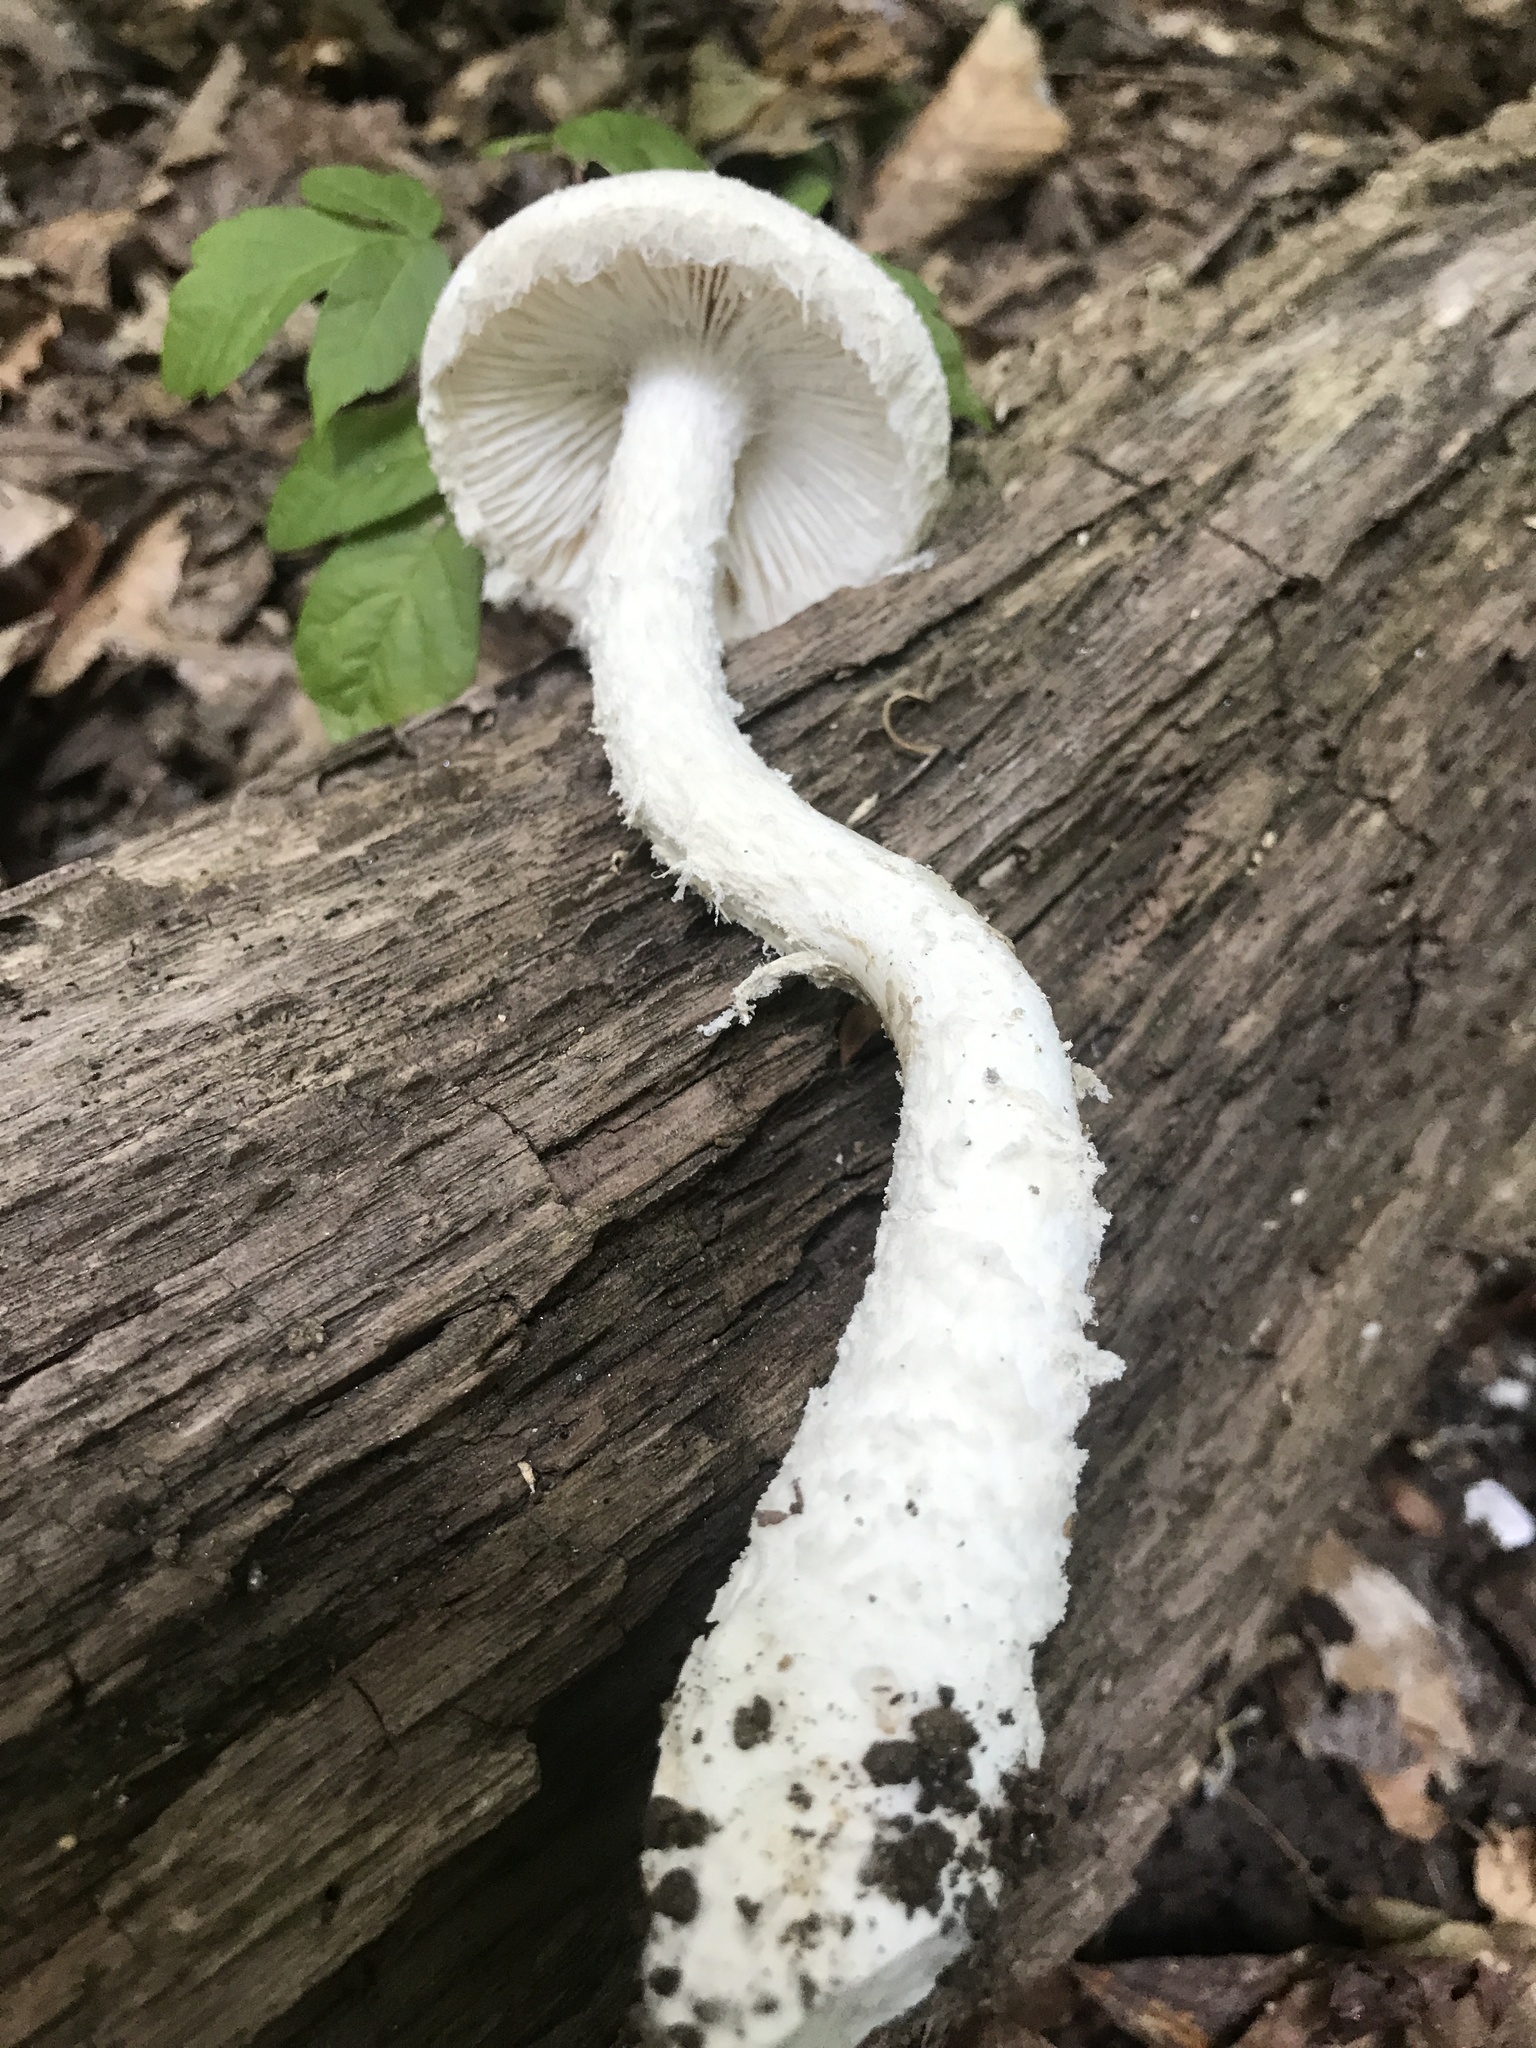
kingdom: Fungi
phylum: Basidiomycota
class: Agaricomycetes
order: Agaricales
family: Amanitaceae
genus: Amanita
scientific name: Amanita longipes
